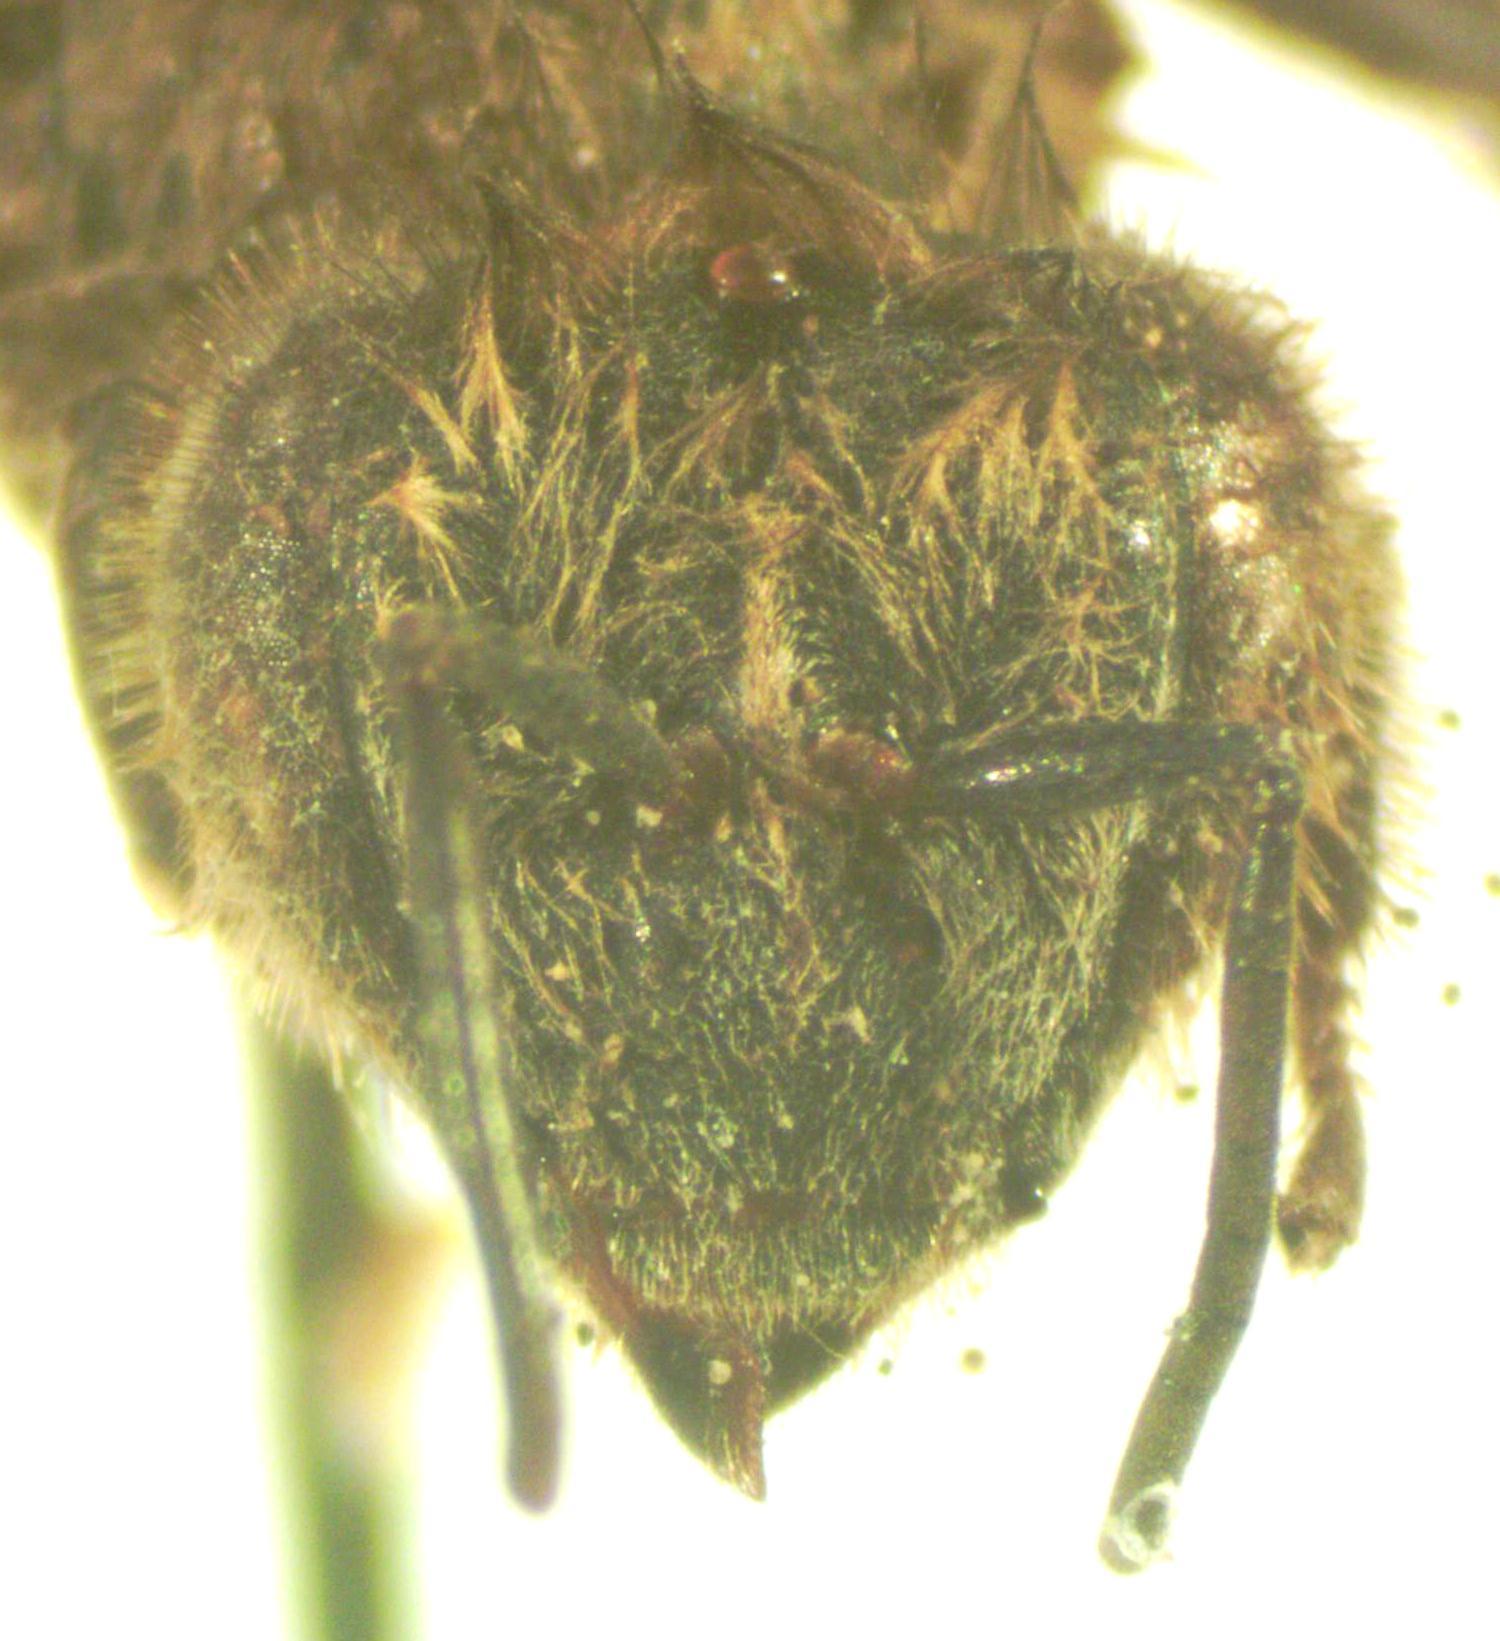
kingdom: Animalia
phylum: Arthropoda
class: Insecta
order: Hymenoptera
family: Apidae
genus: Apis
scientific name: Apis mellifera
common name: Honey bee
